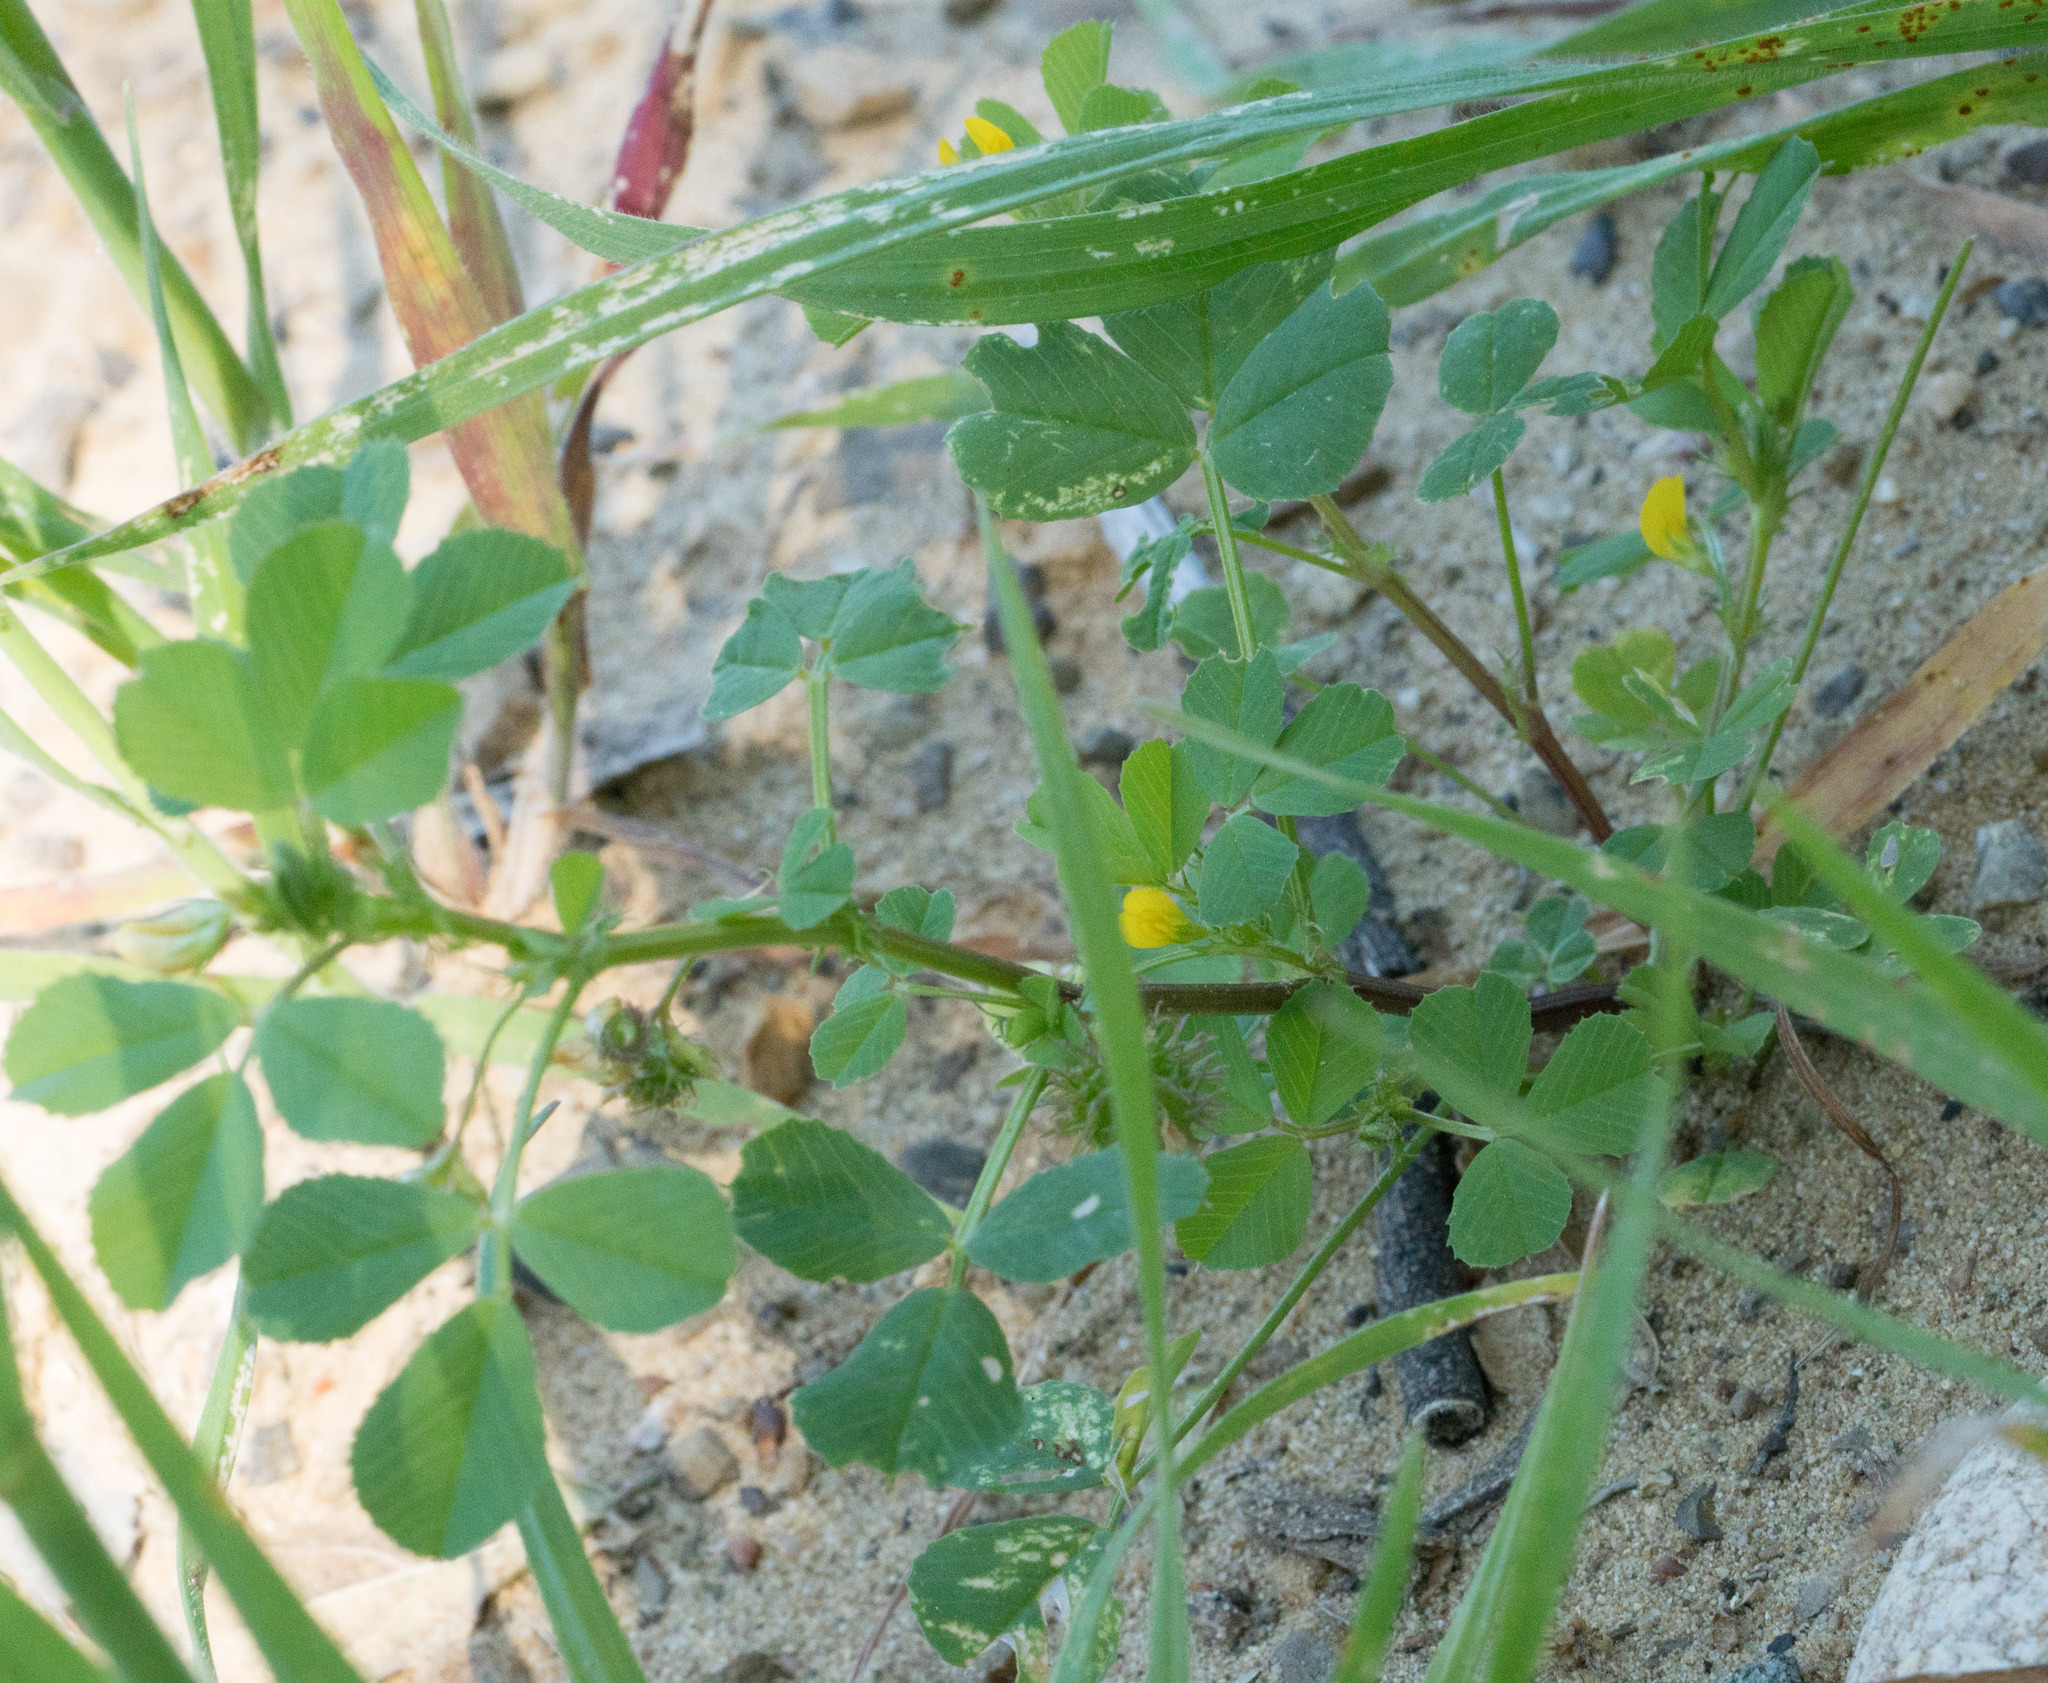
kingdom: Plantae
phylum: Tracheophyta
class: Magnoliopsida
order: Fabales
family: Fabaceae
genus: Medicago
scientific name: Medicago polymorpha
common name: Burclover
